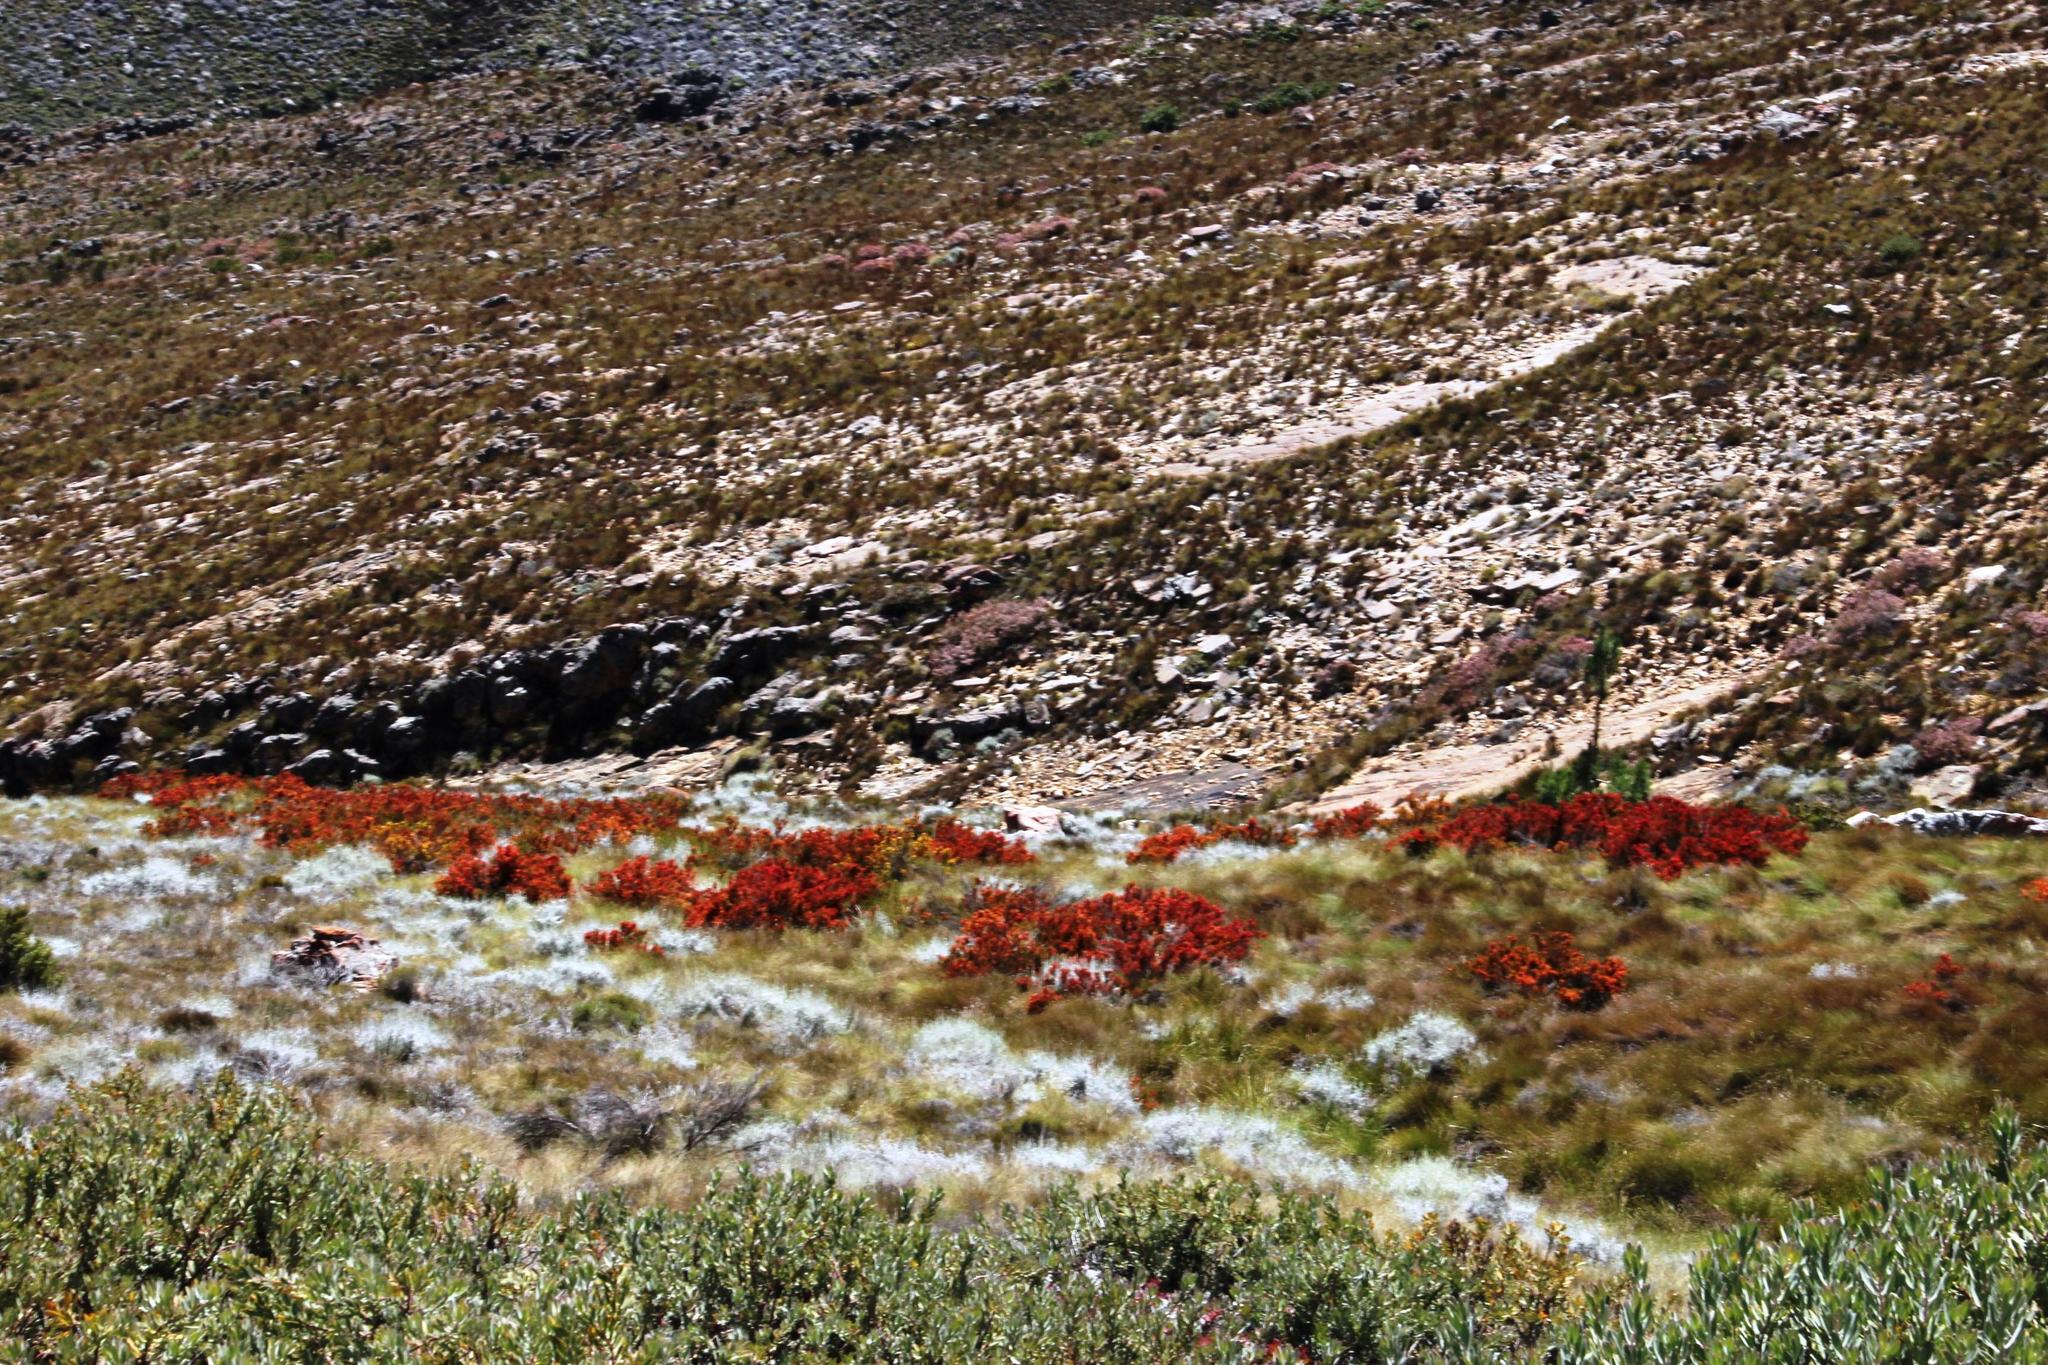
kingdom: Plantae
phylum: Tracheophyta
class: Magnoliopsida
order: Ericales
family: Ericaceae
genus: Erica
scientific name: Erica curviflora
